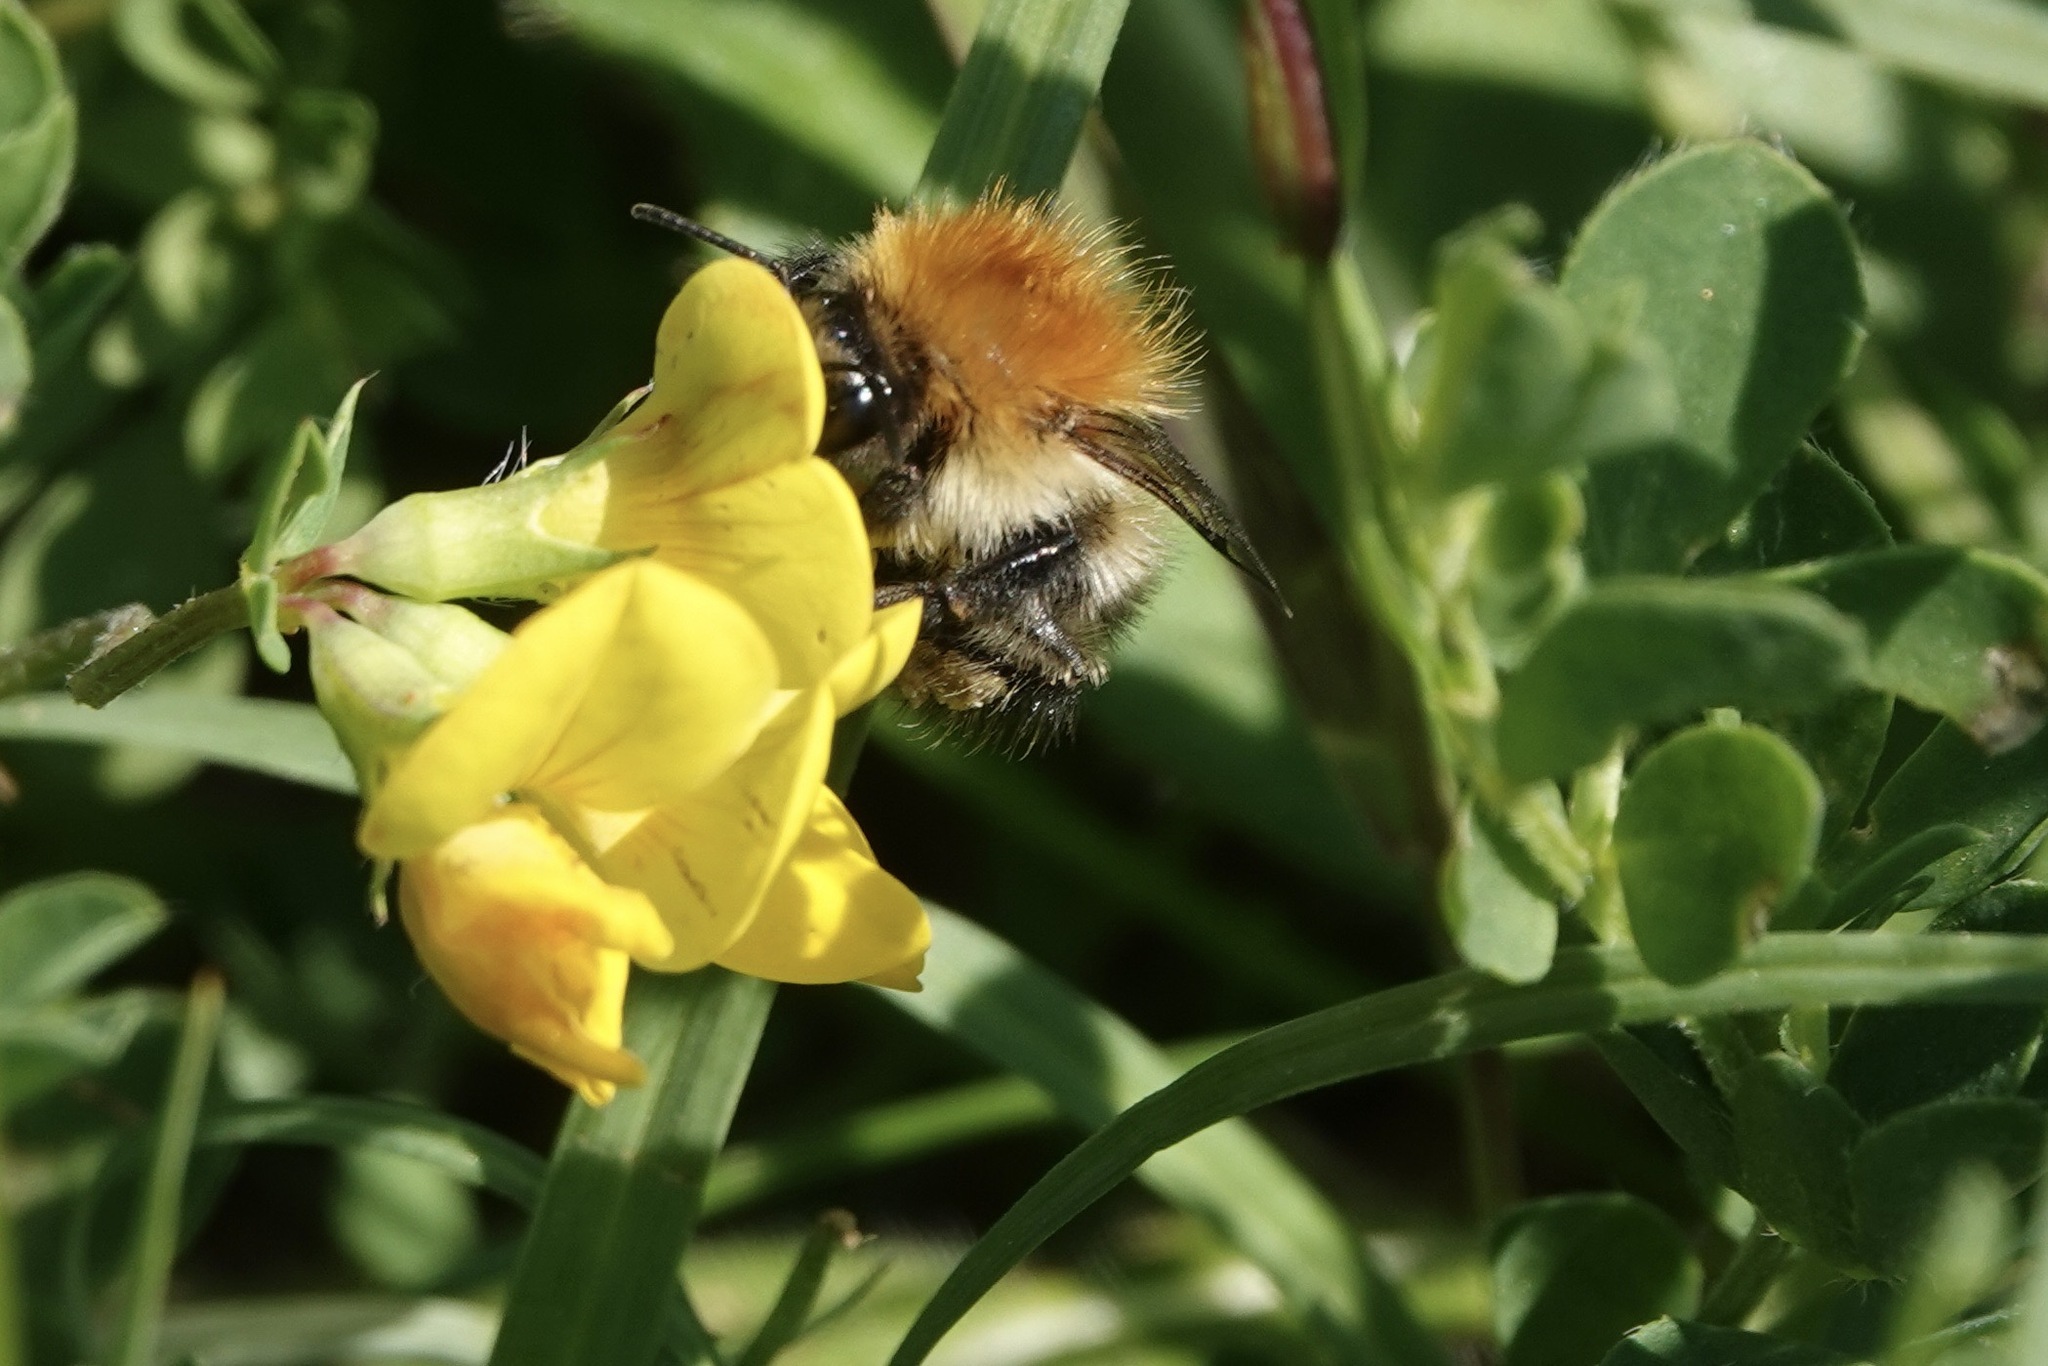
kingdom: Animalia
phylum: Arthropoda
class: Insecta
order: Hymenoptera
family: Apidae
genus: Bombus
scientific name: Bombus pascuorum
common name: Common carder bee
